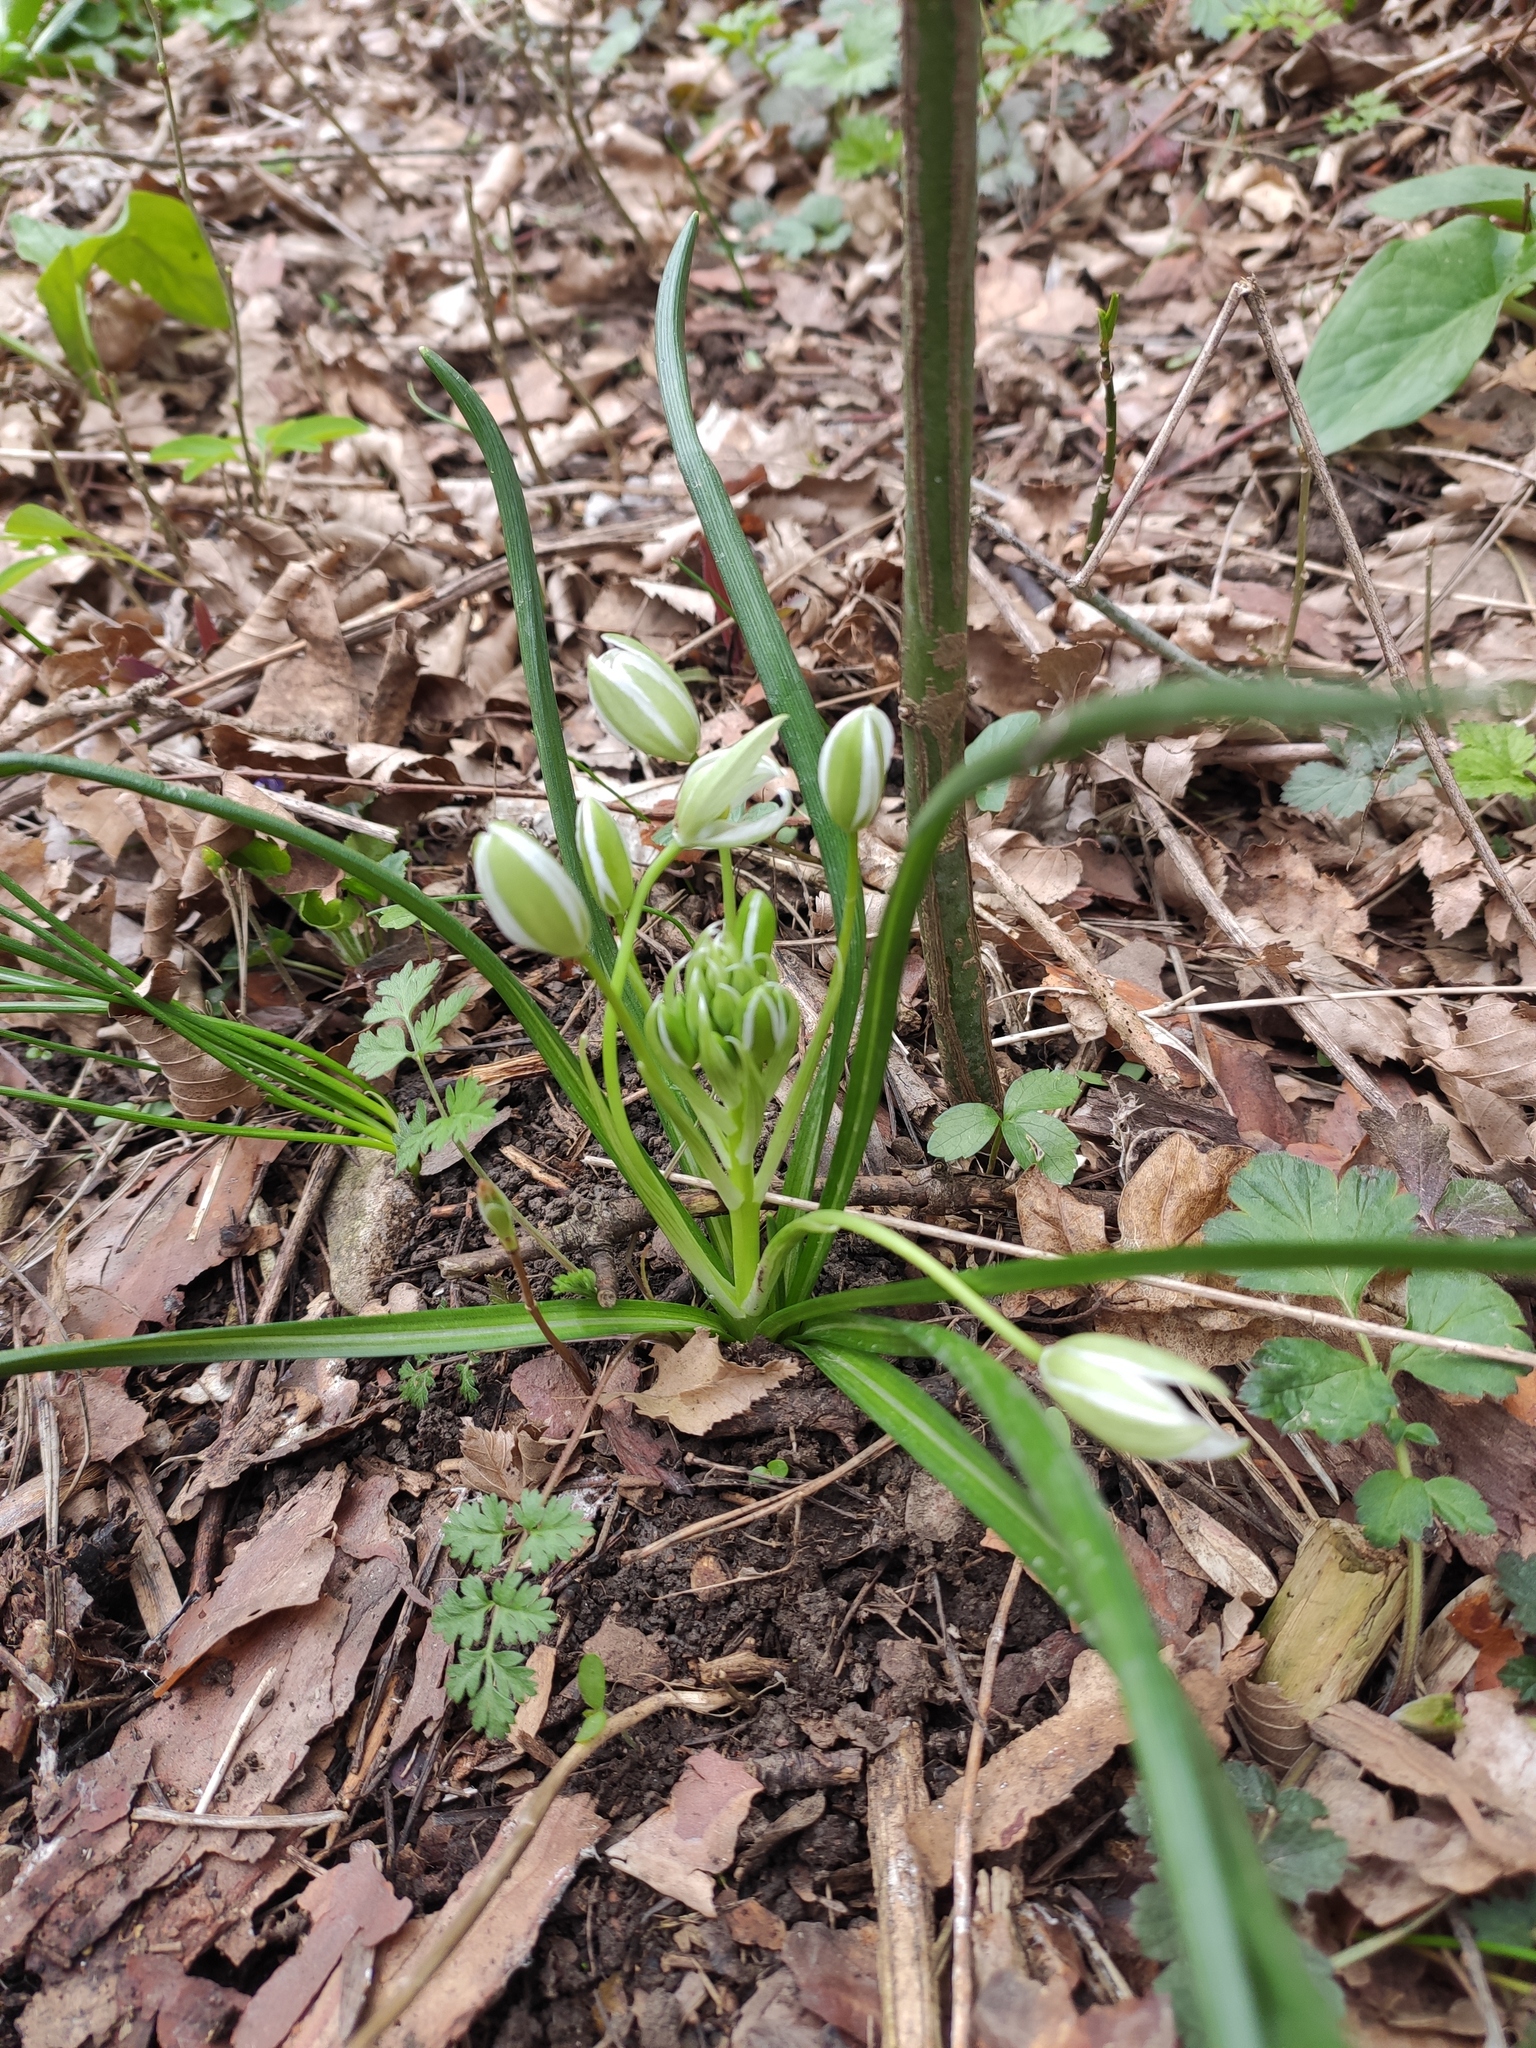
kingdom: Plantae
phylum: Tracheophyta
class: Liliopsida
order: Asparagales
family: Asparagaceae
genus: Ornithogalum
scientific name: Ornithogalum woronowii
